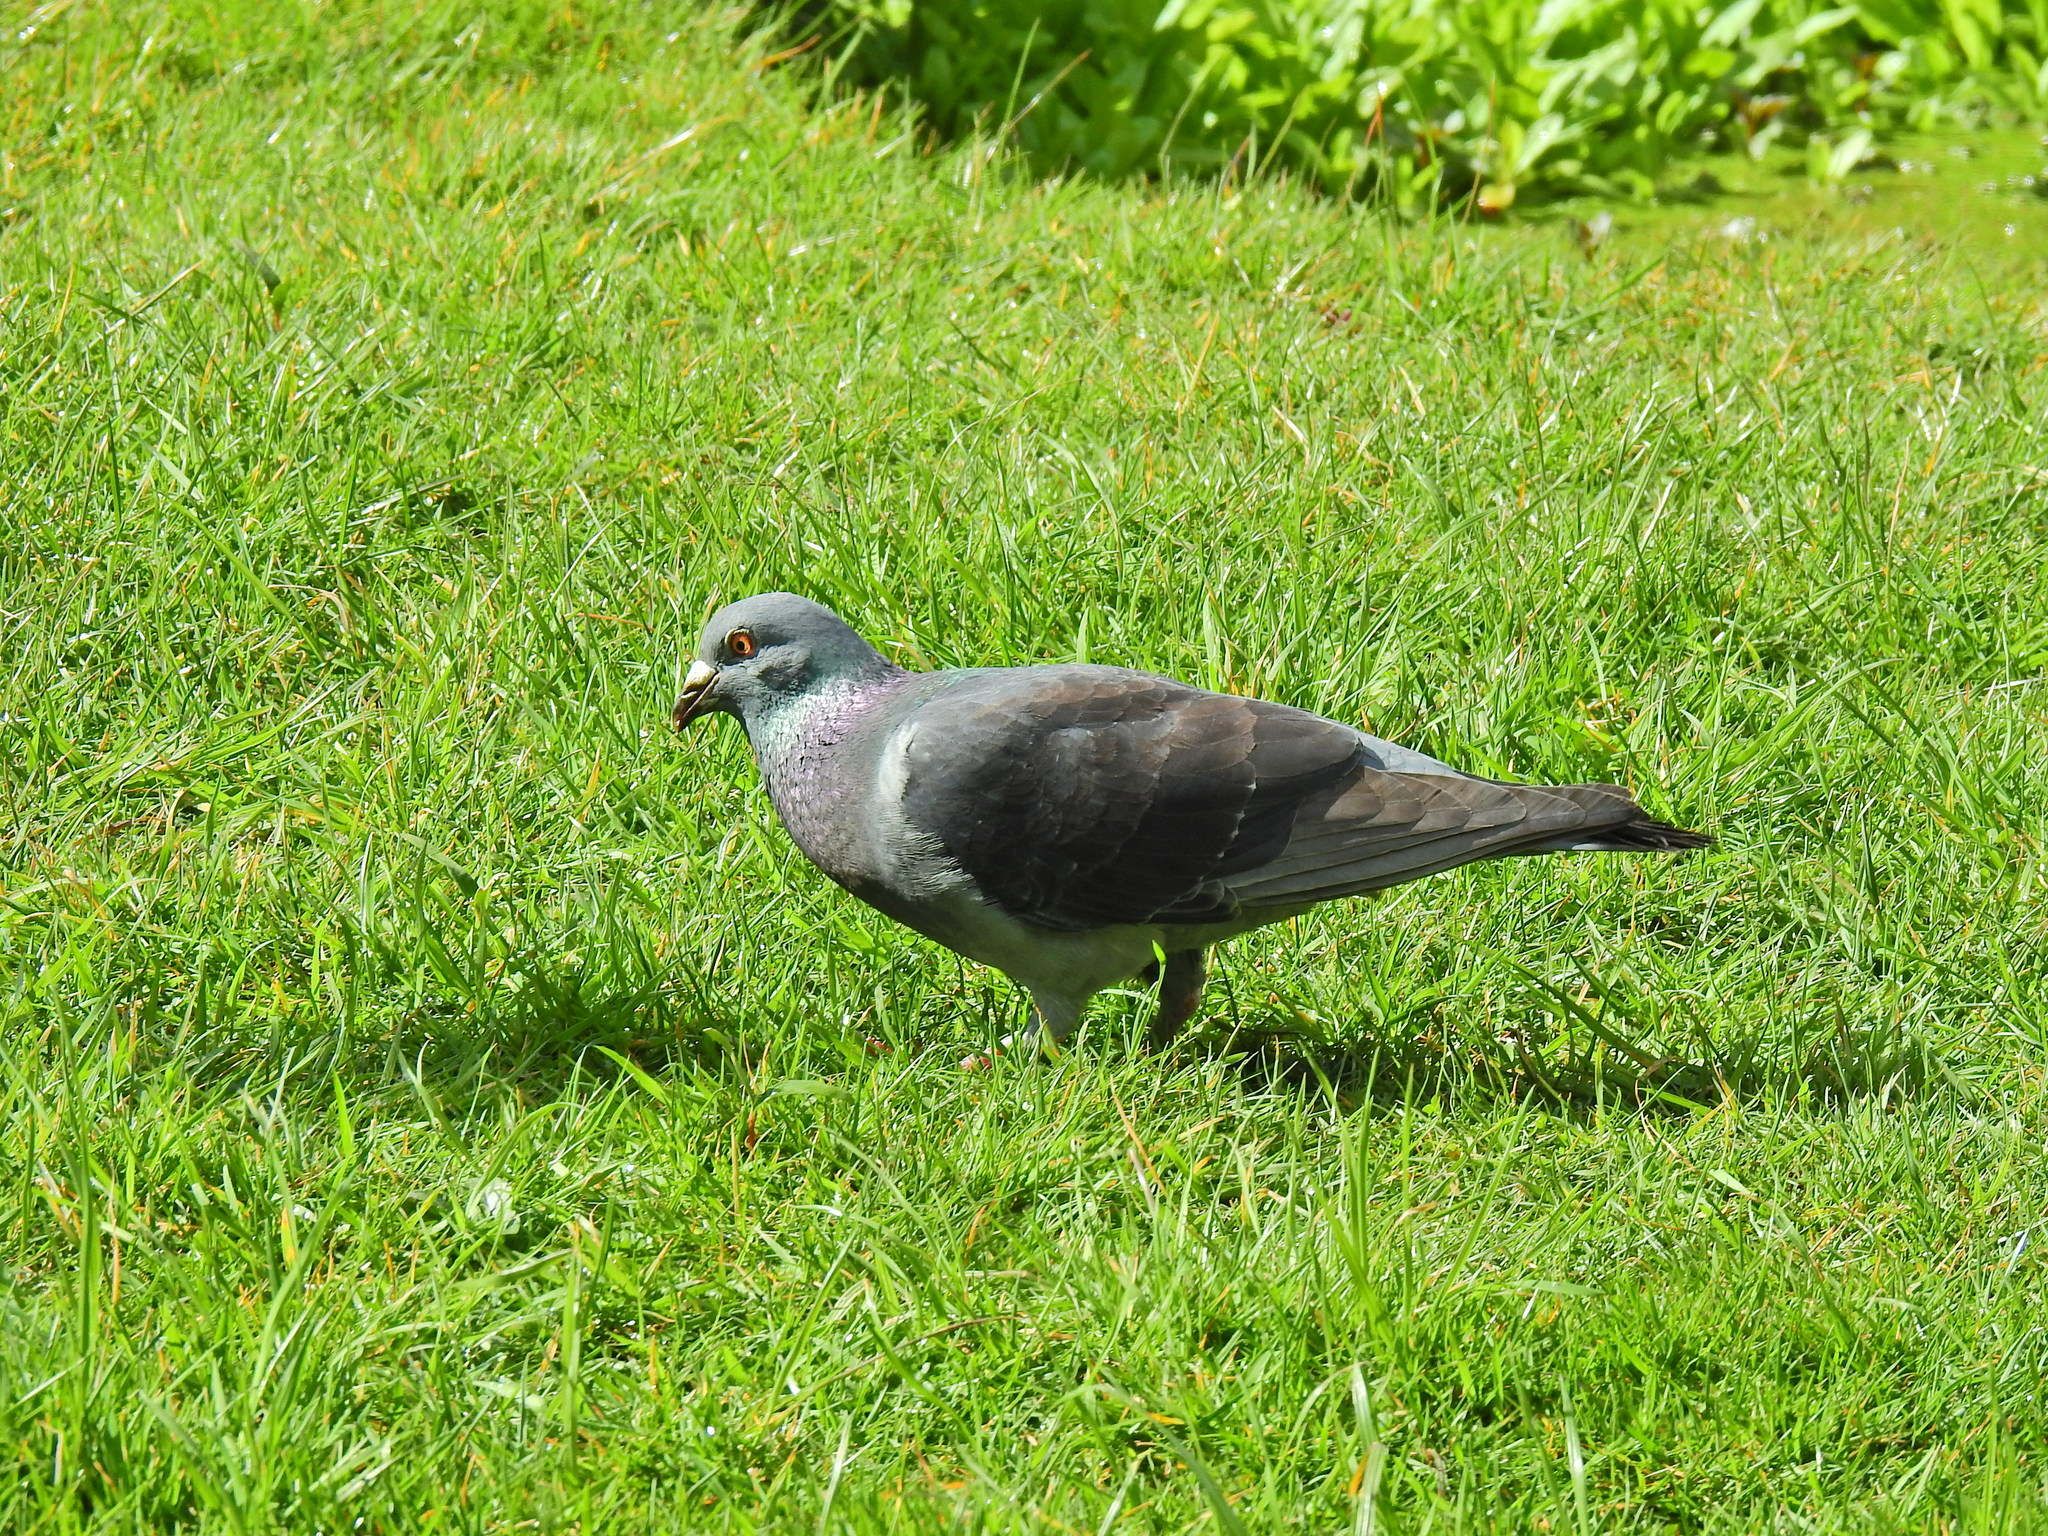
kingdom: Animalia
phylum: Chordata
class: Aves
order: Columbiformes
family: Columbidae
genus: Columba
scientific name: Columba livia
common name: Rock pigeon
